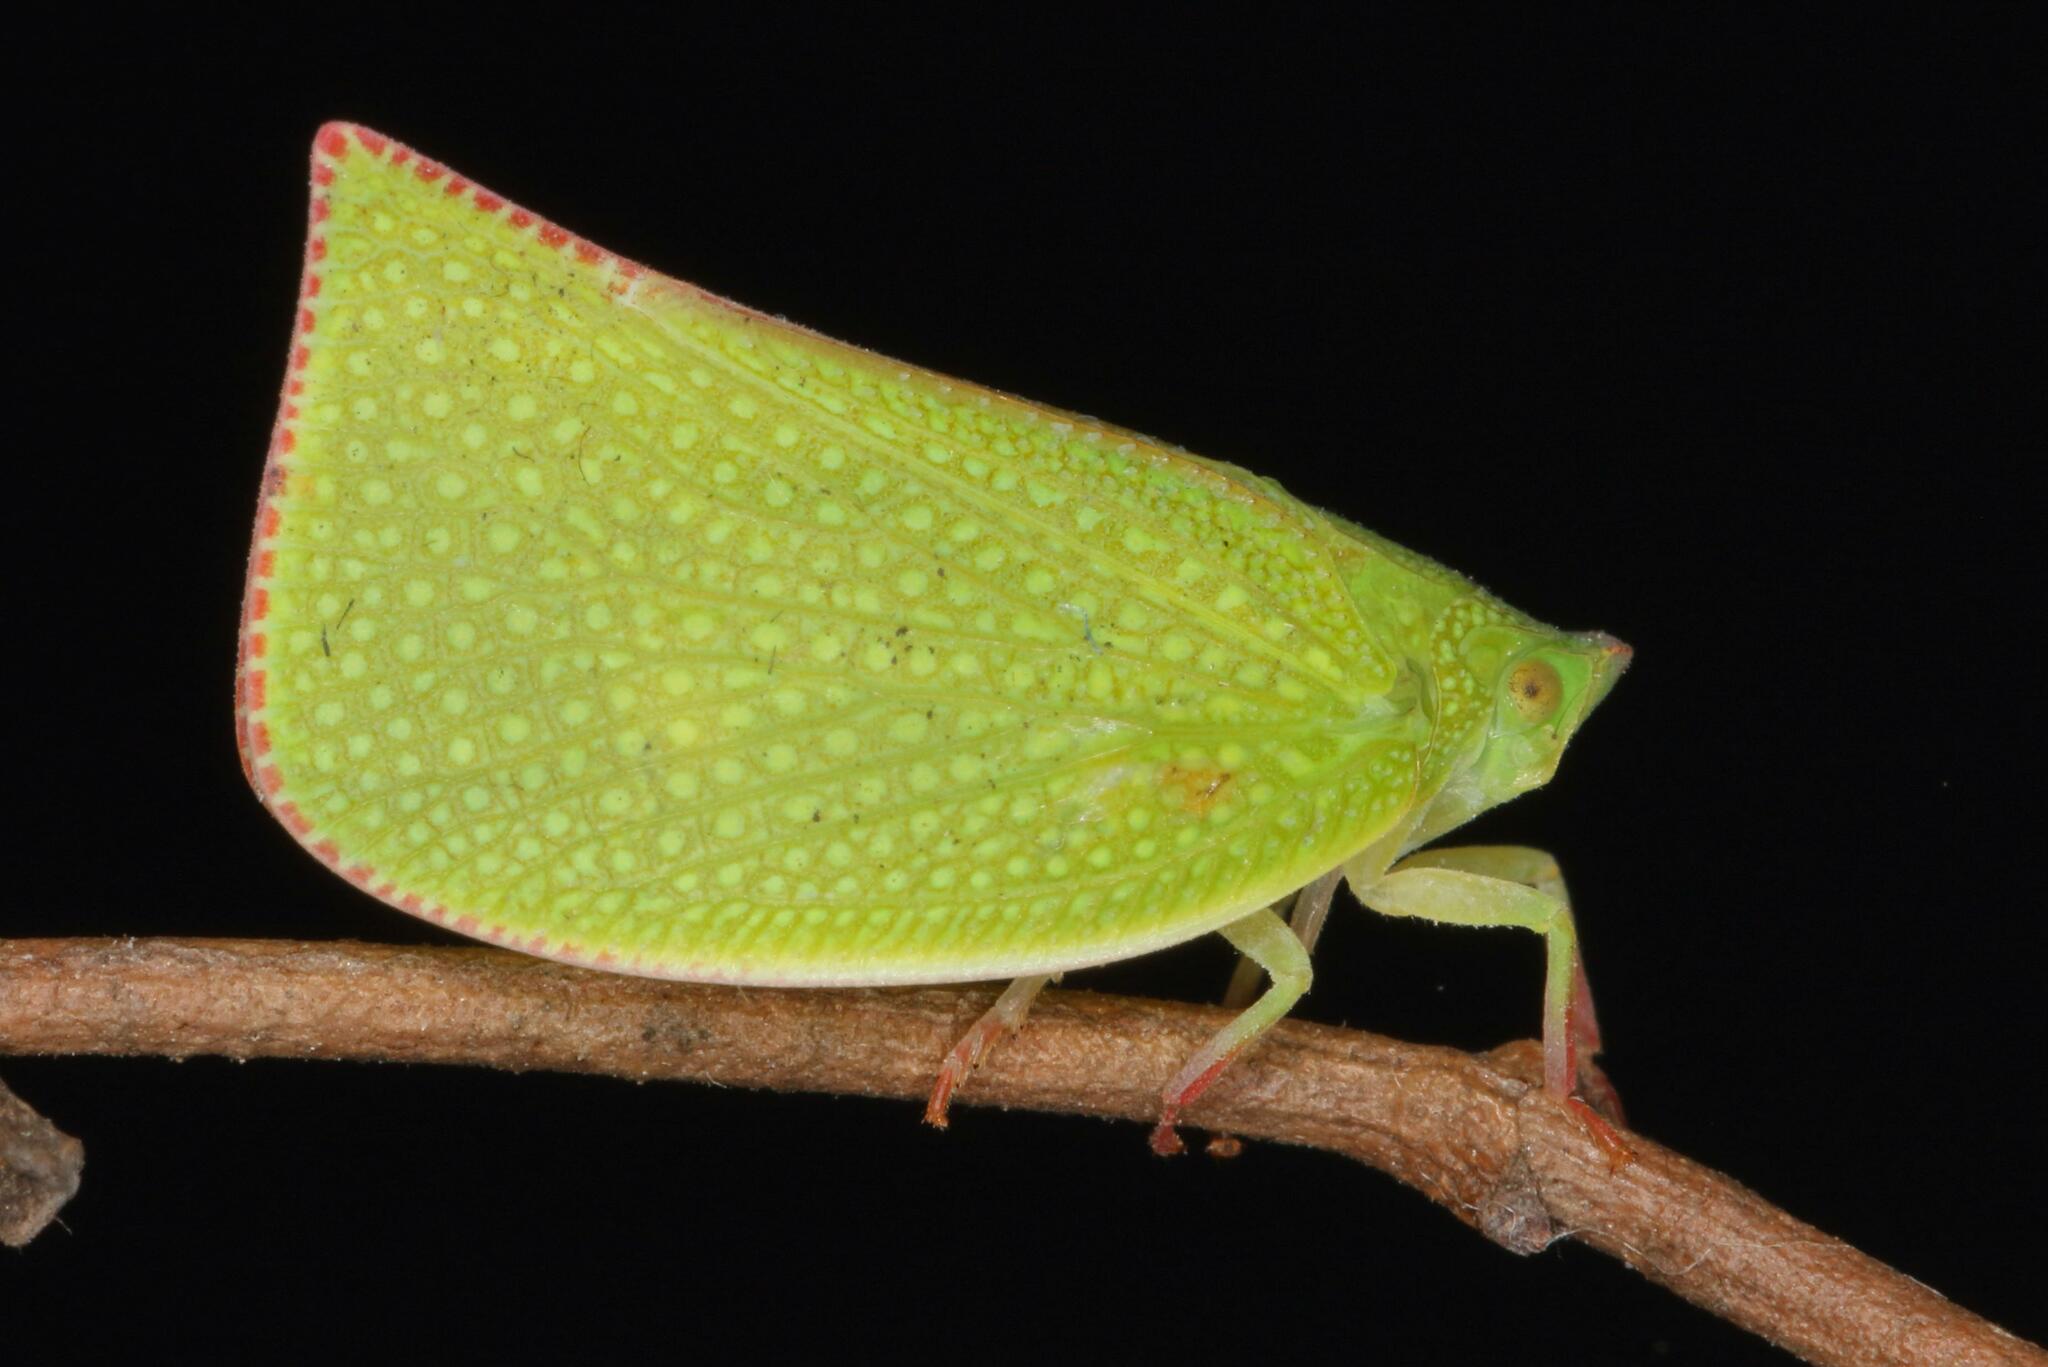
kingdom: Animalia
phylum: Arthropoda
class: Insecta
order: Hemiptera
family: Flatidae
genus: Siphanta
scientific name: Siphanta acuta
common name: Torpedo bug
